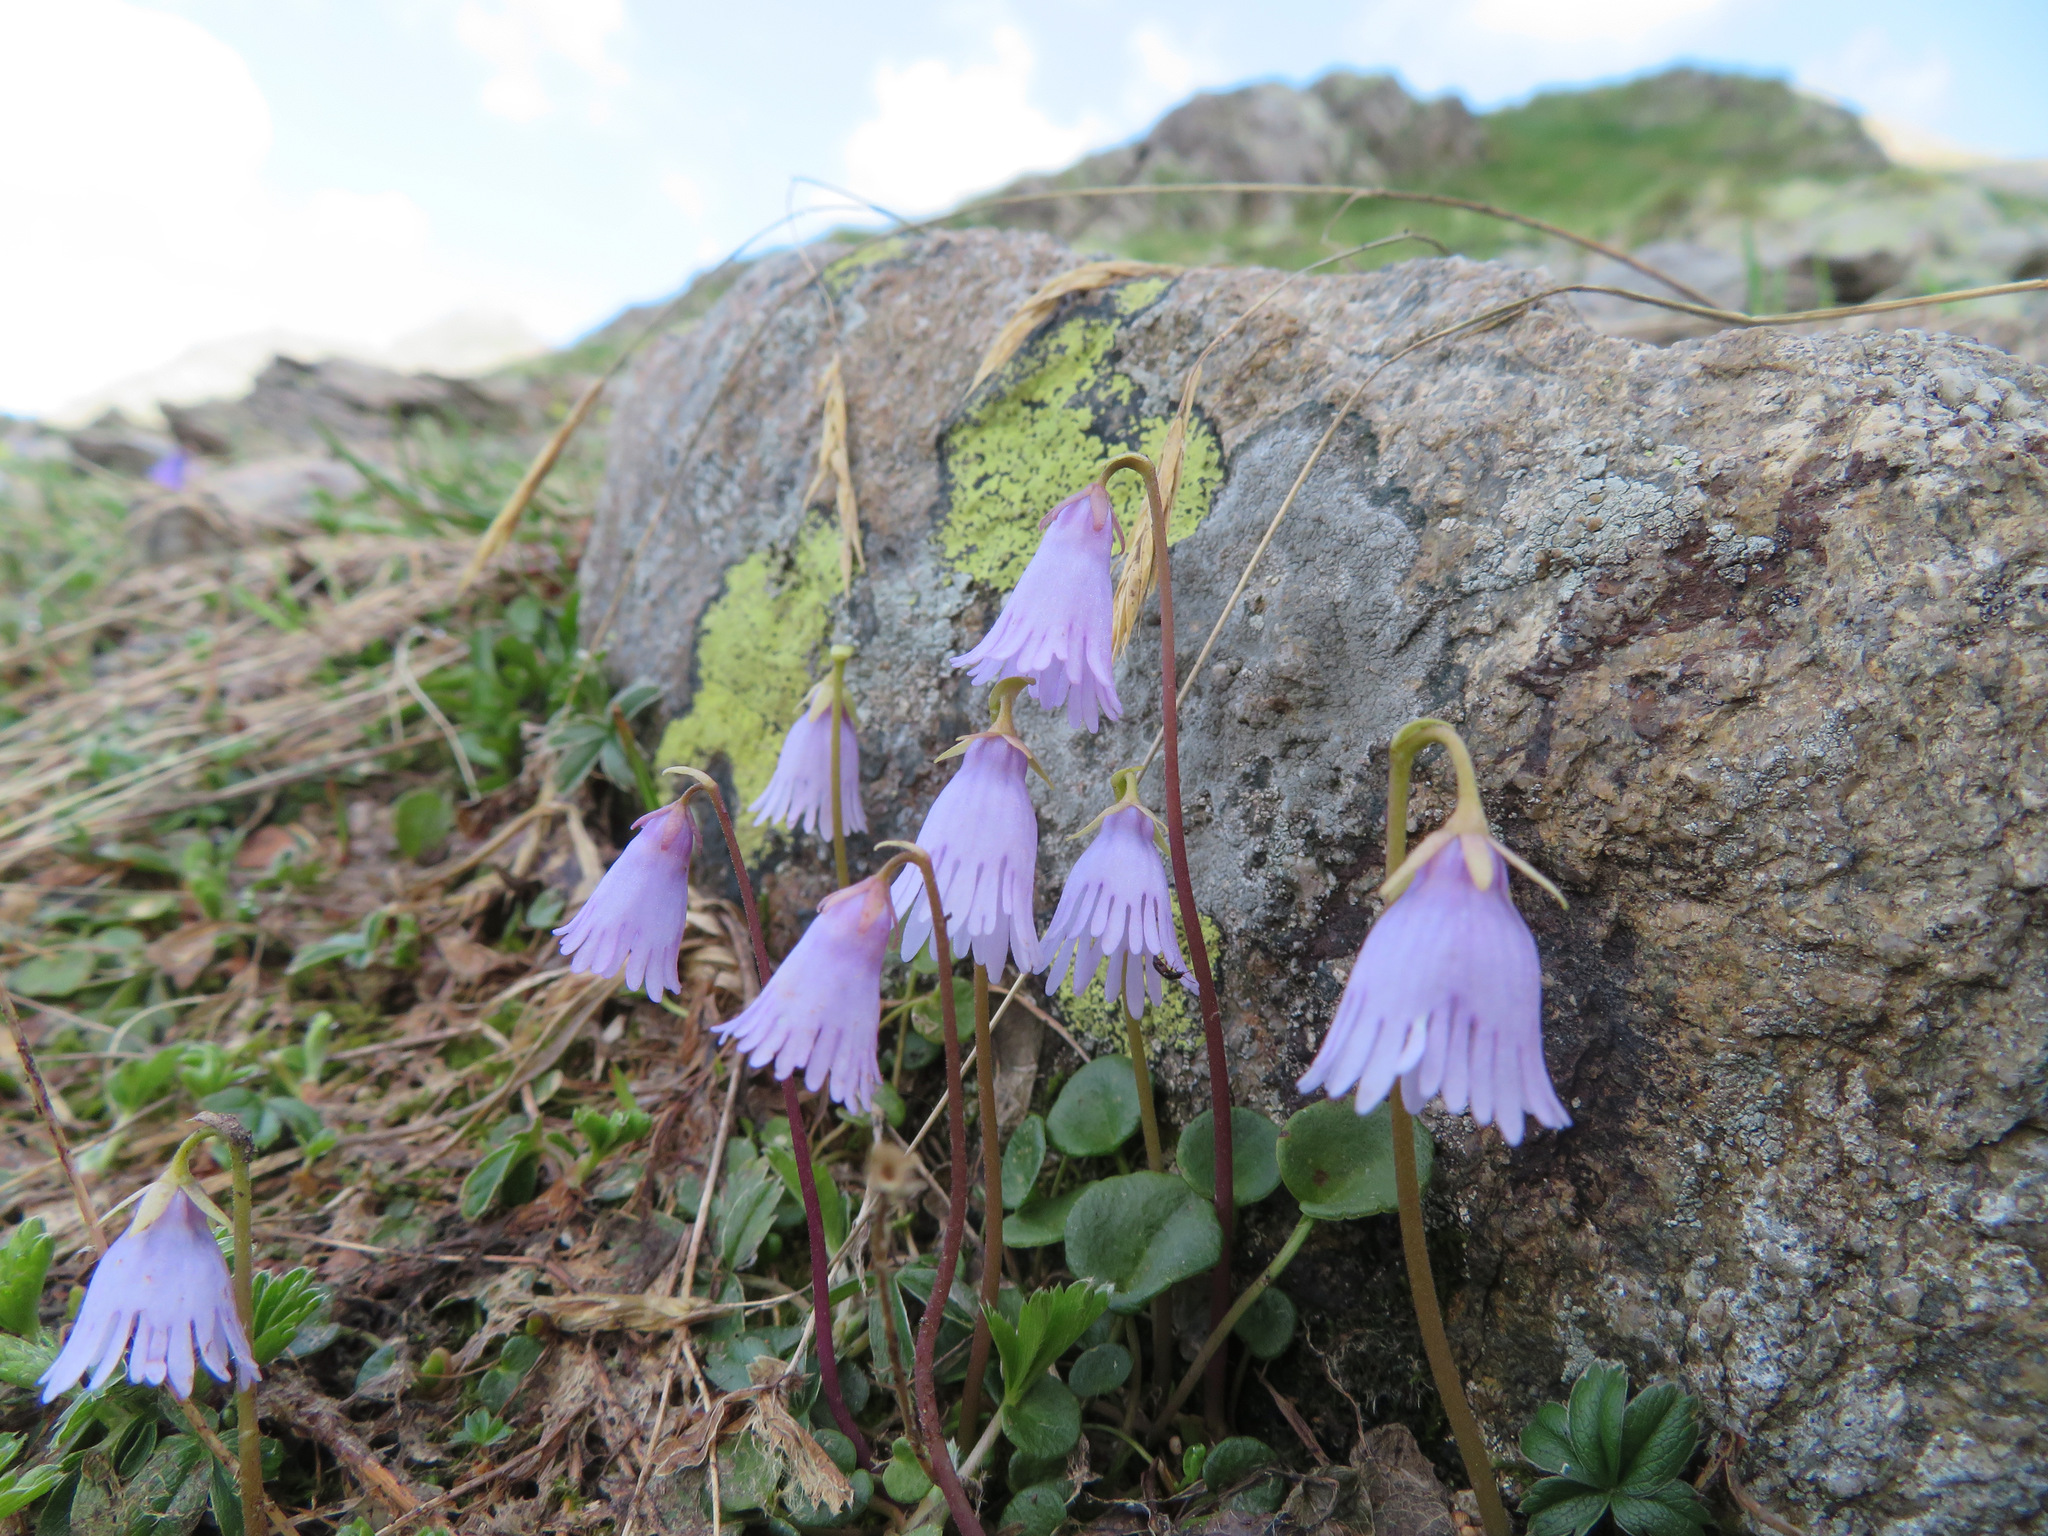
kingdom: Plantae
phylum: Tracheophyta
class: Magnoliopsida
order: Ericales
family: Primulaceae
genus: Soldanella
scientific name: Soldanella alpicola
